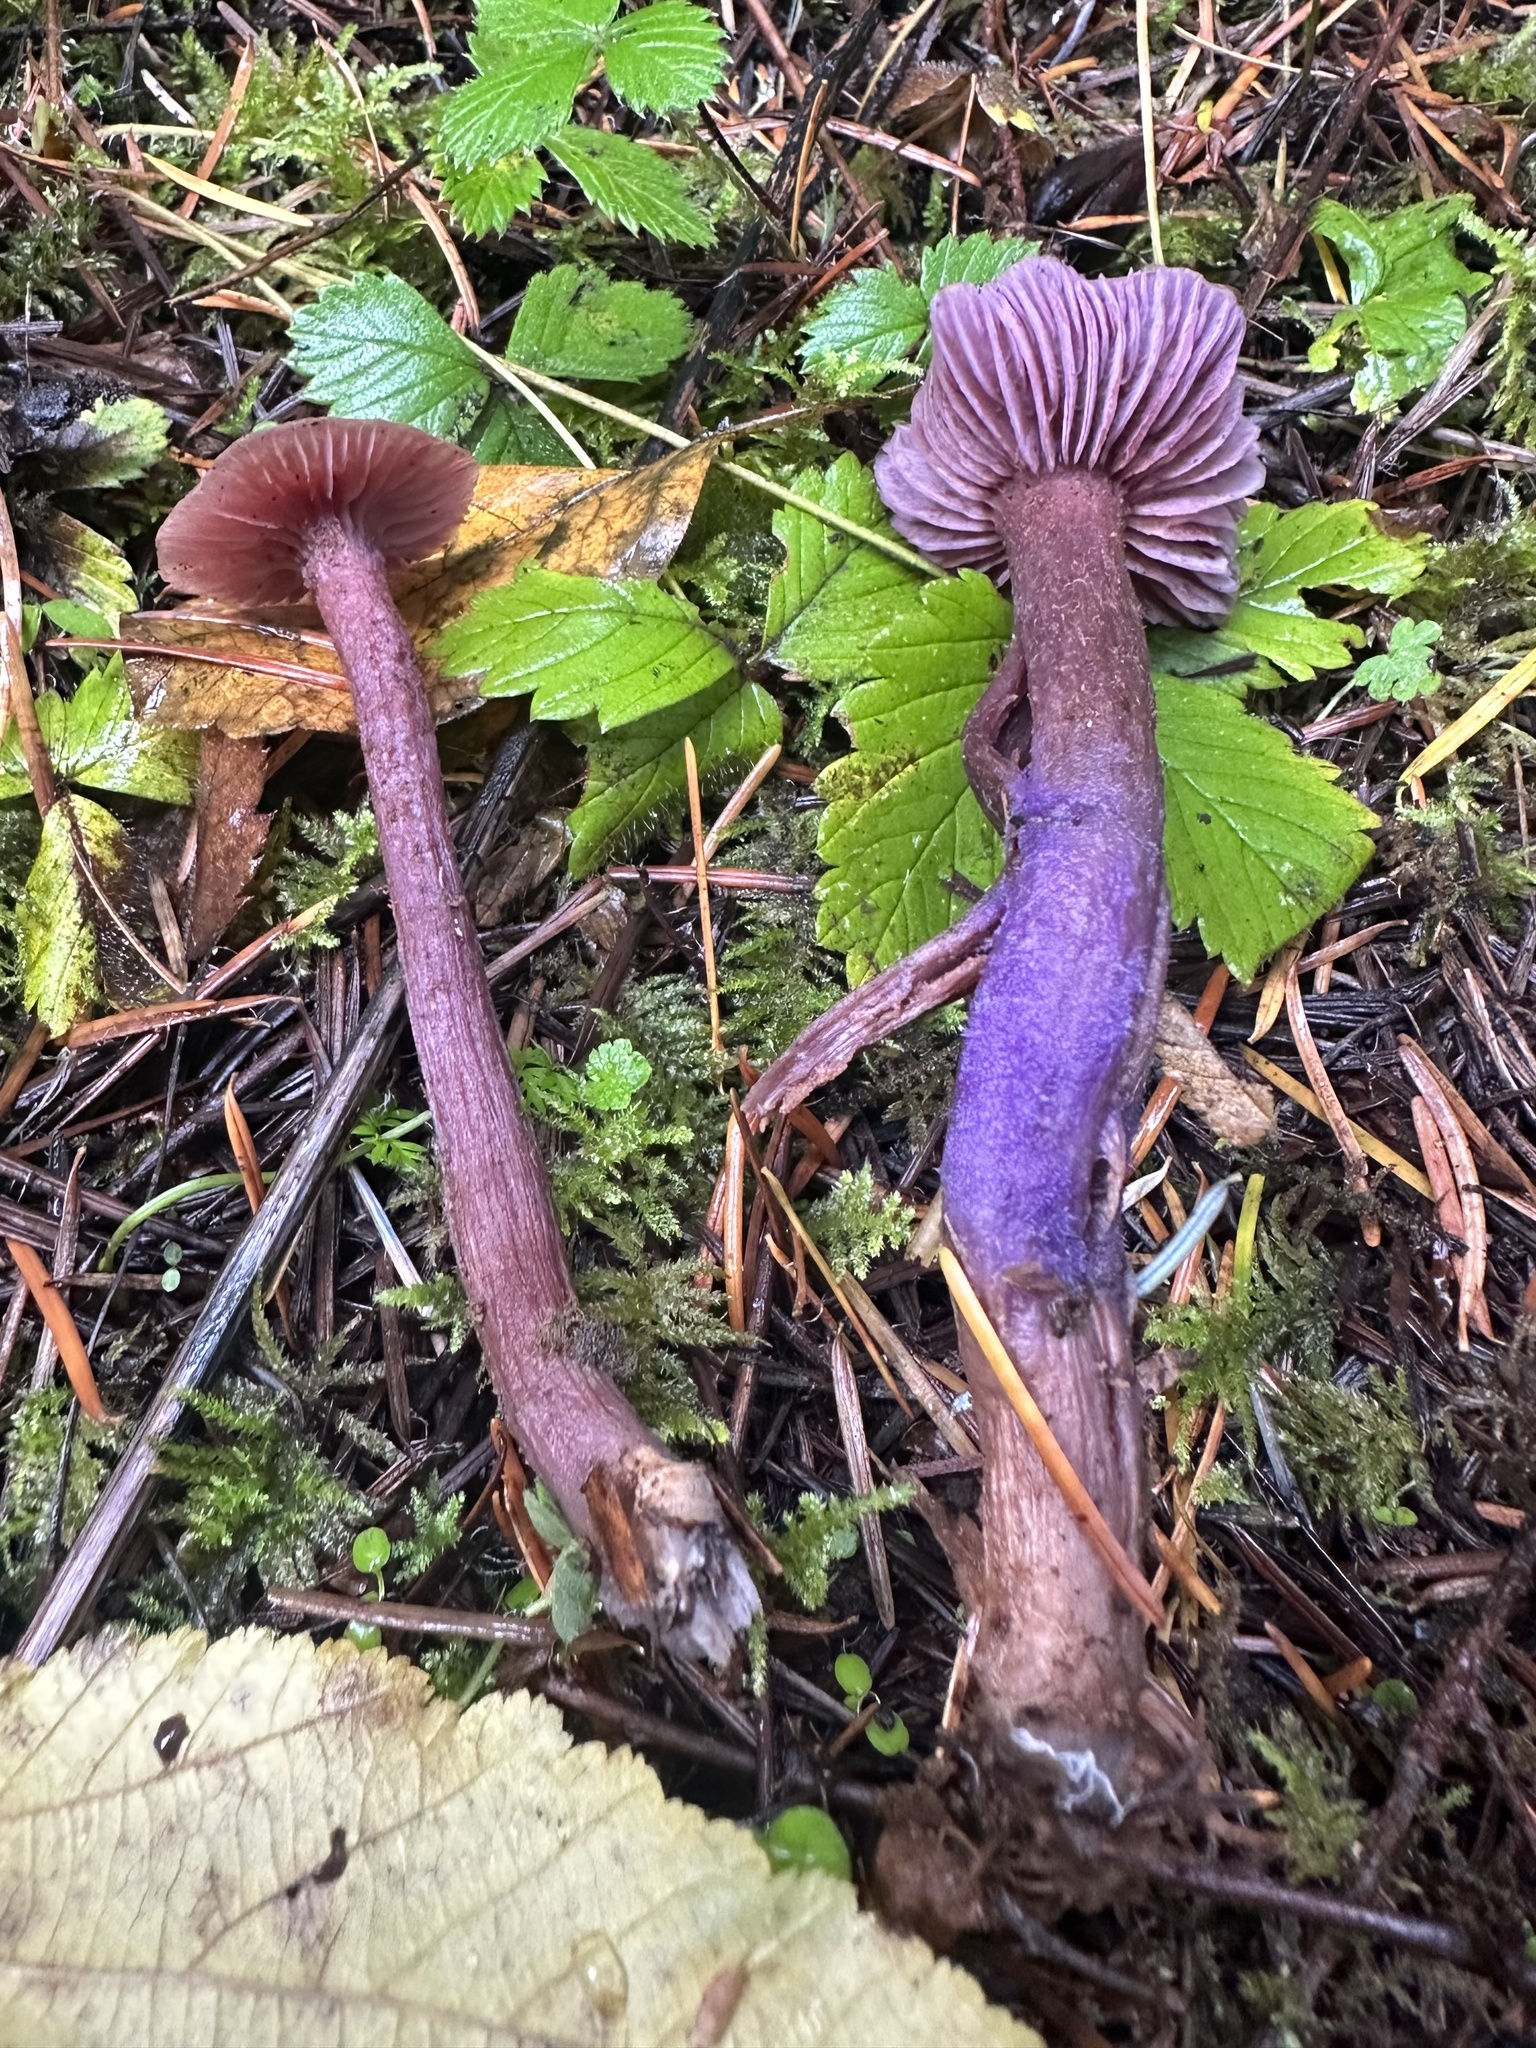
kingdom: Fungi
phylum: Basidiomycota
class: Agaricomycetes
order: Agaricales
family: Hydnangiaceae
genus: Laccaria
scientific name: Laccaria amethysteo-occidentalis
